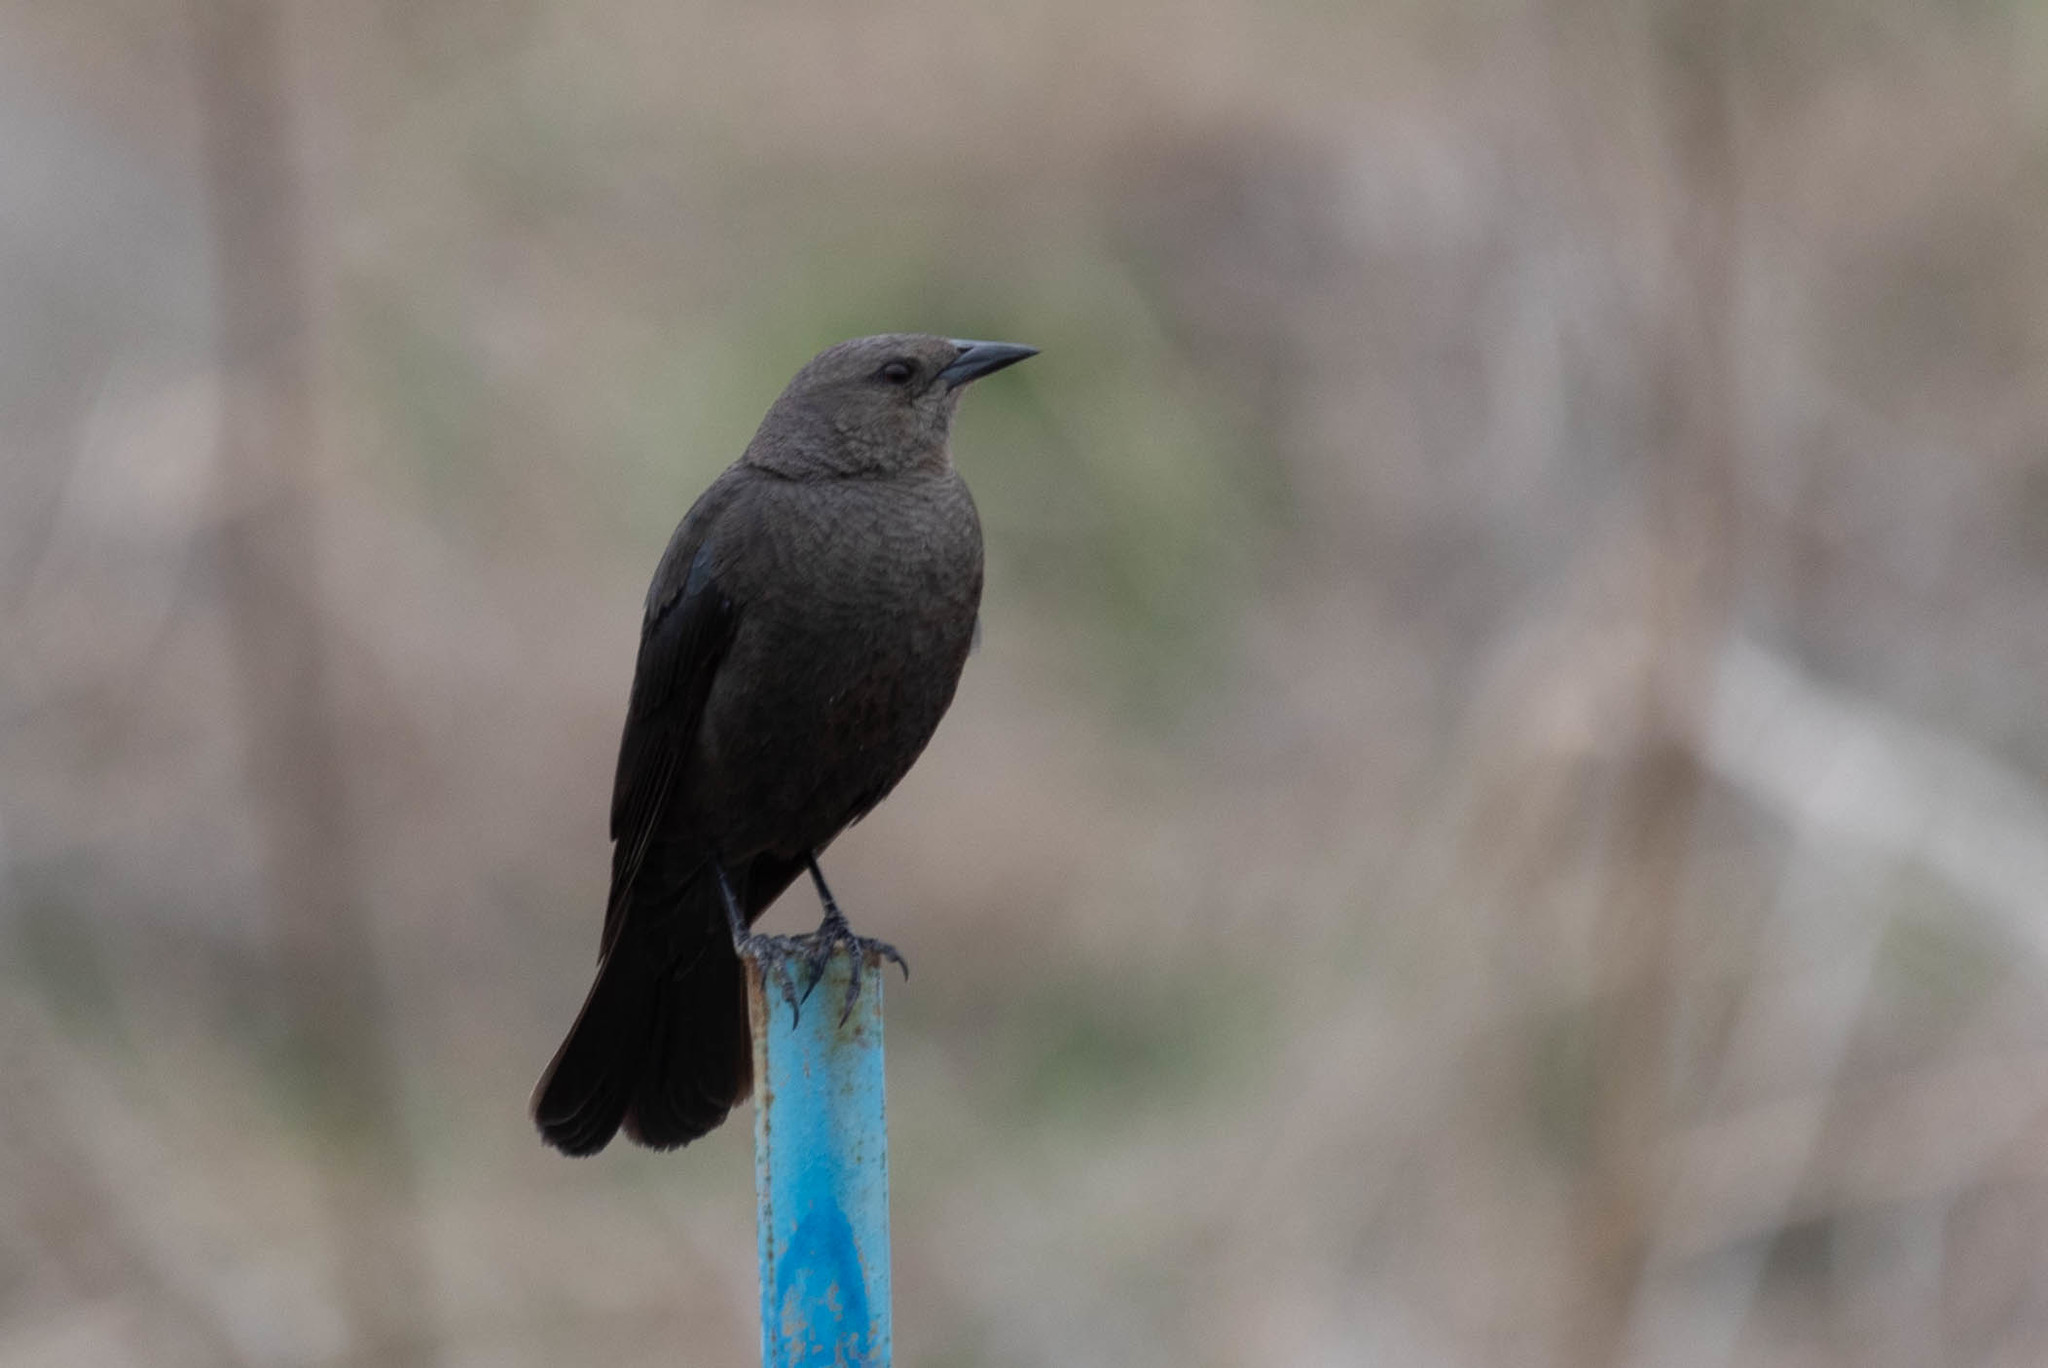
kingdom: Animalia
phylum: Chordata
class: Aves
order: Passeriformes
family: Icteridae
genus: Euphagus
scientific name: Euphagus cyanocephalus
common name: Brewer's blackbird
